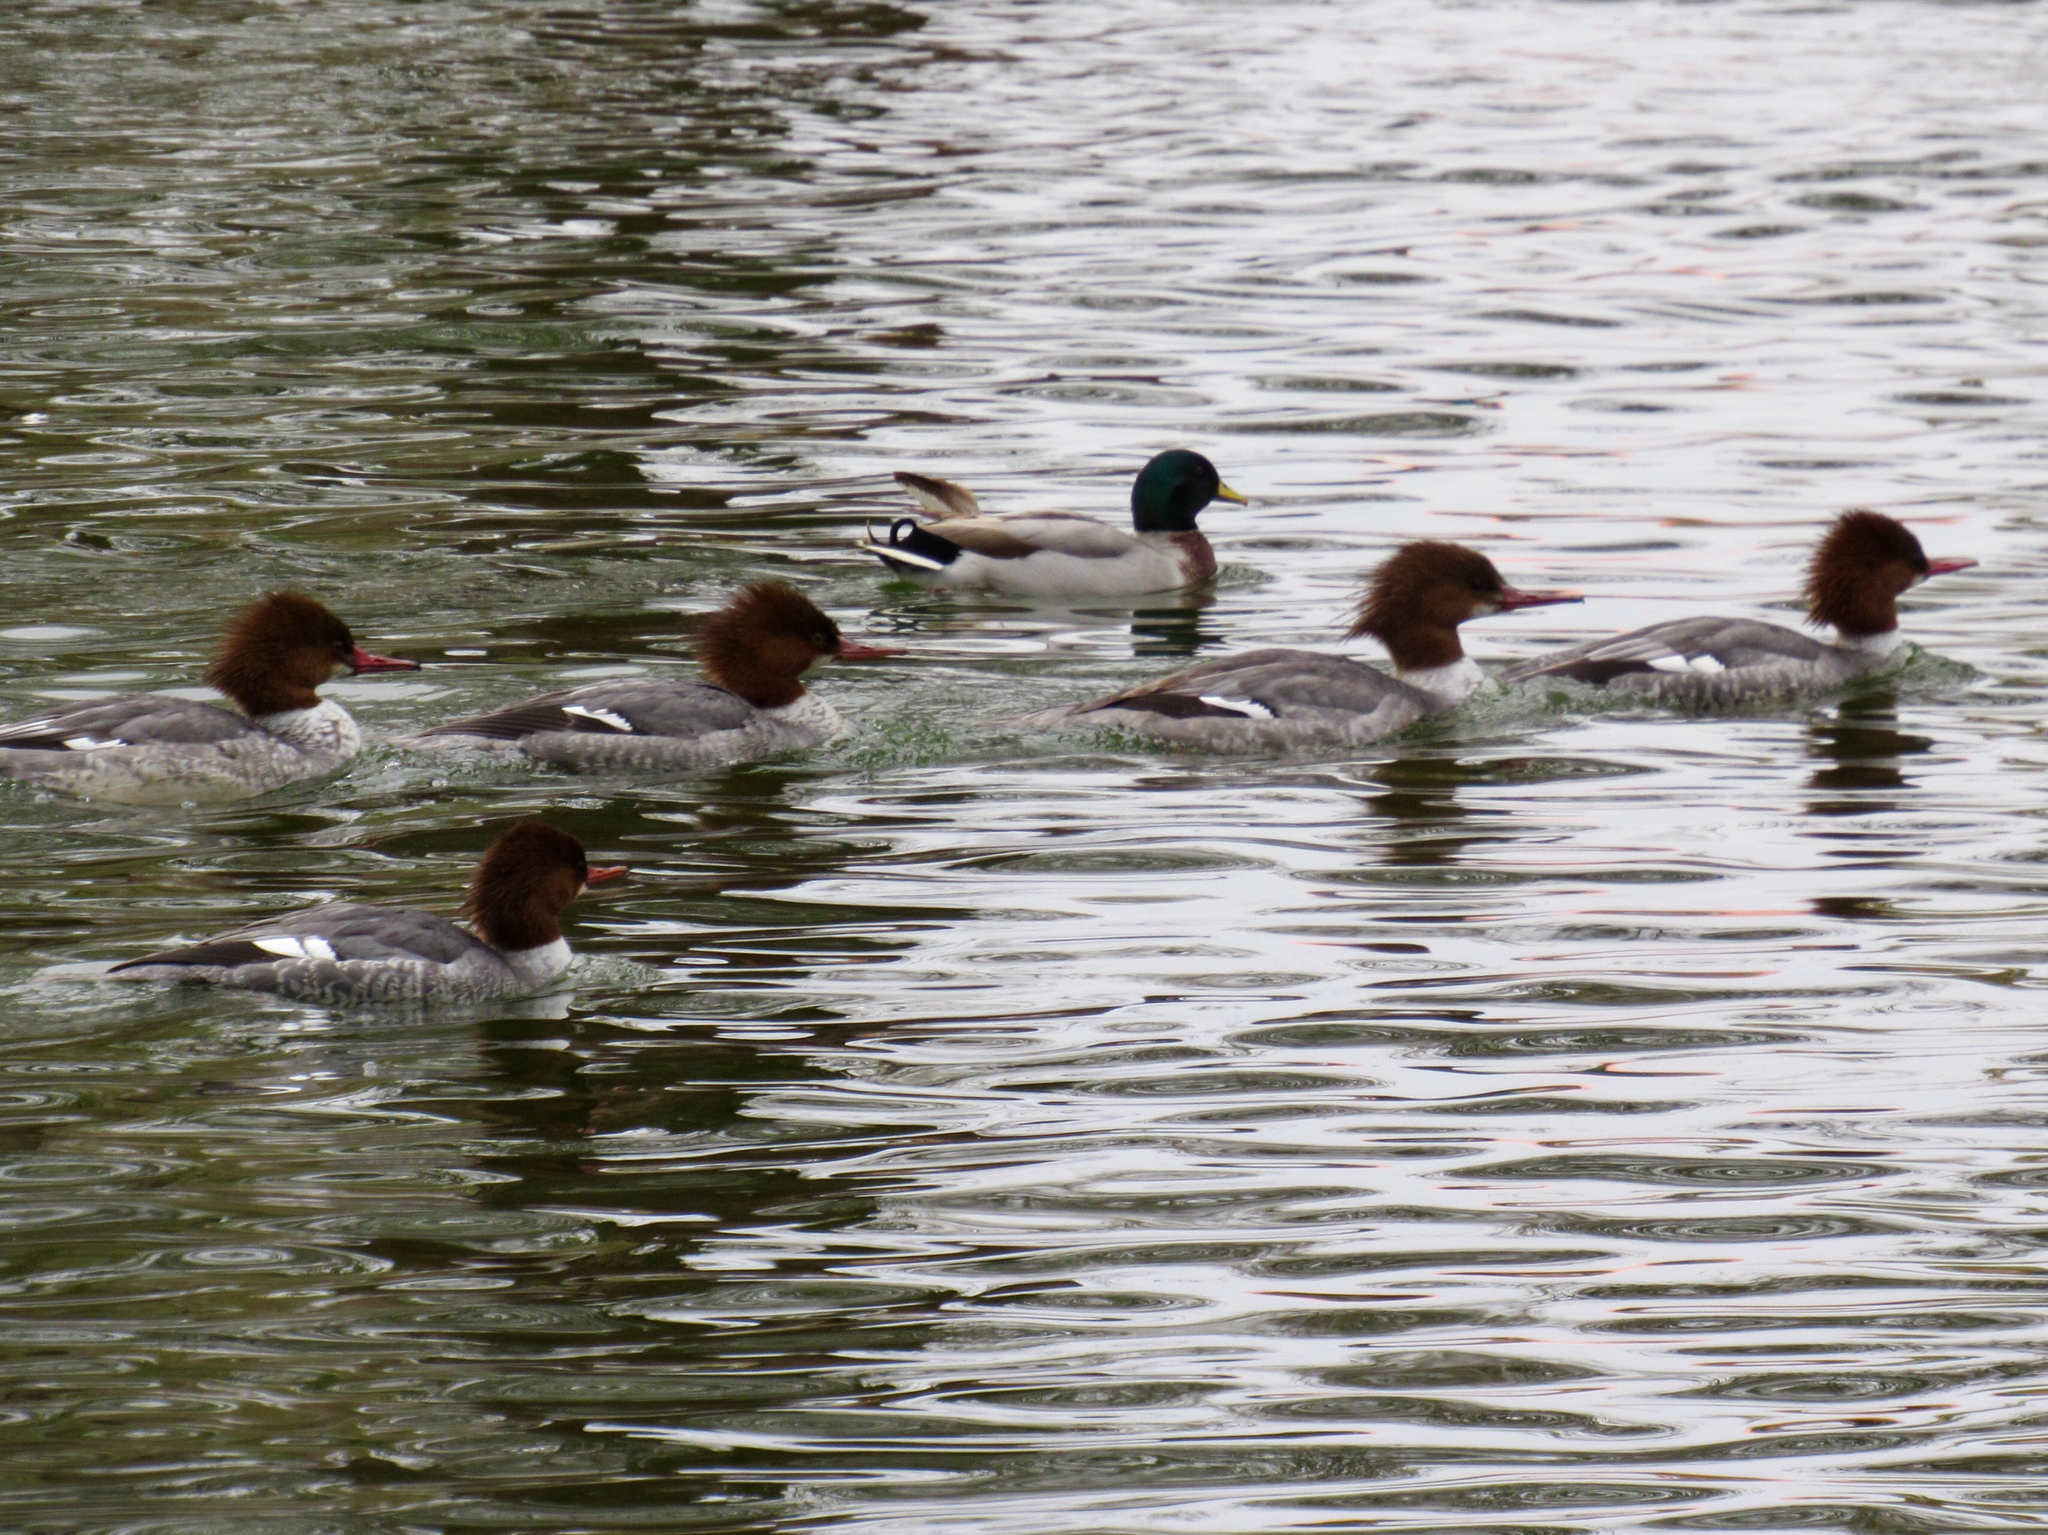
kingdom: Animalia
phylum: Chordata
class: Aves
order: Anseriformes
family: Anatidae
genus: Mergus
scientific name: Mergus merganser
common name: Common merganser
